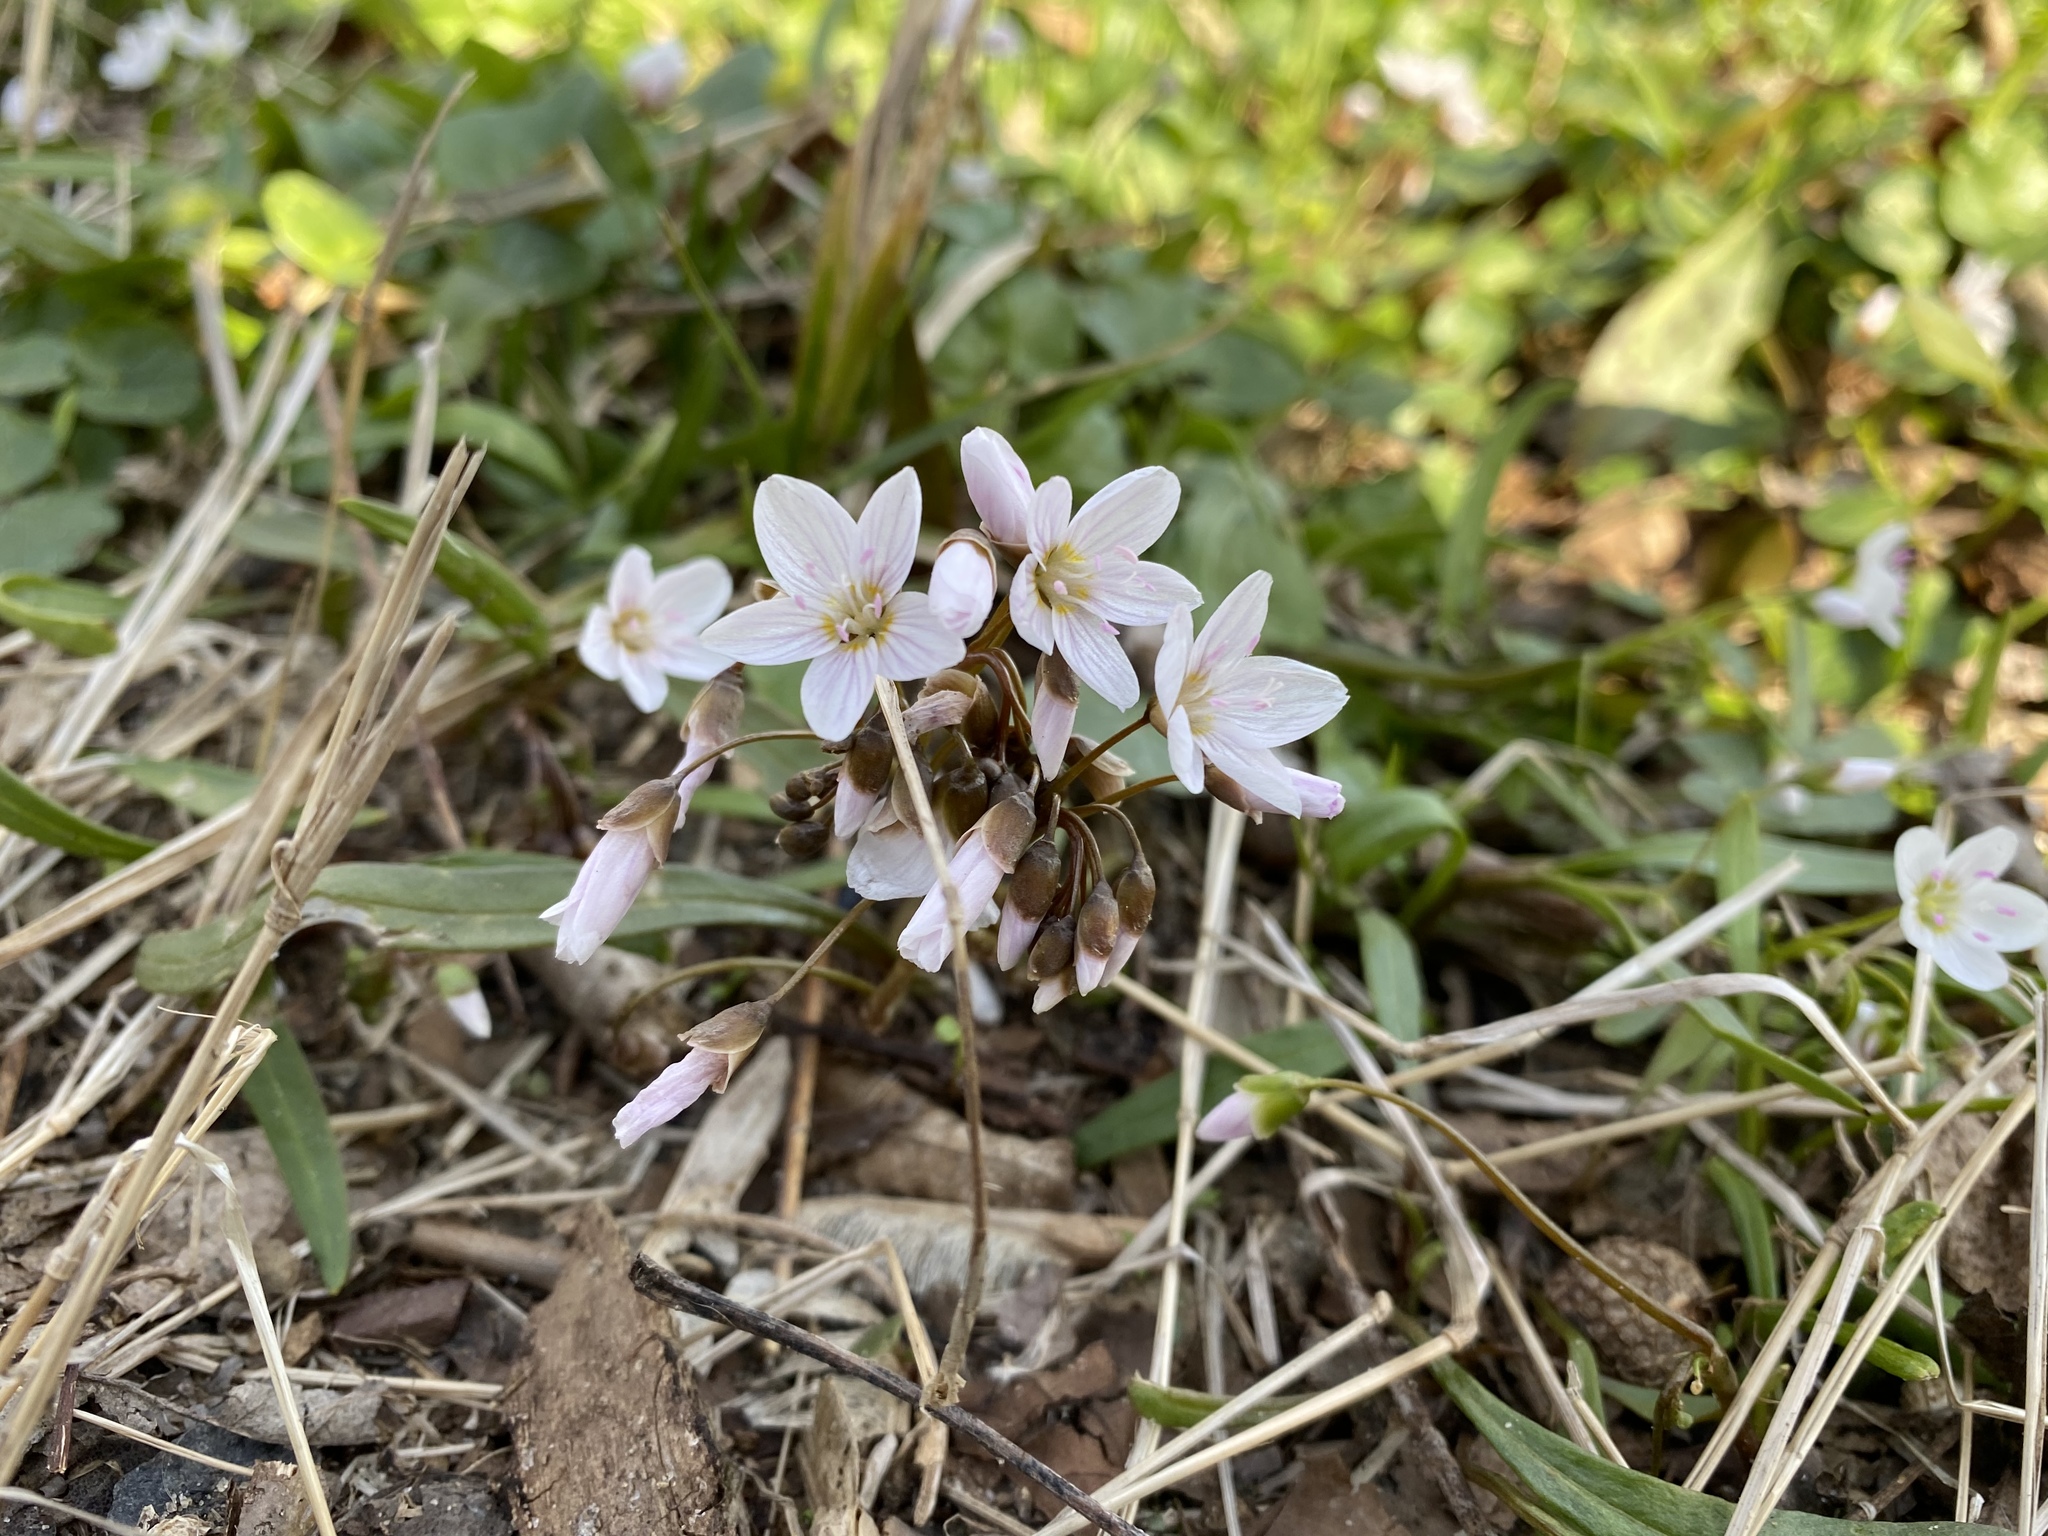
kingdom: Plantae
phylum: Tracheophyta
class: Magnoliopsida
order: Caryophyllales
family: Montiaceae
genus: Claytonia
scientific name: Claytonia virginica
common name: Virginia springbeauty
